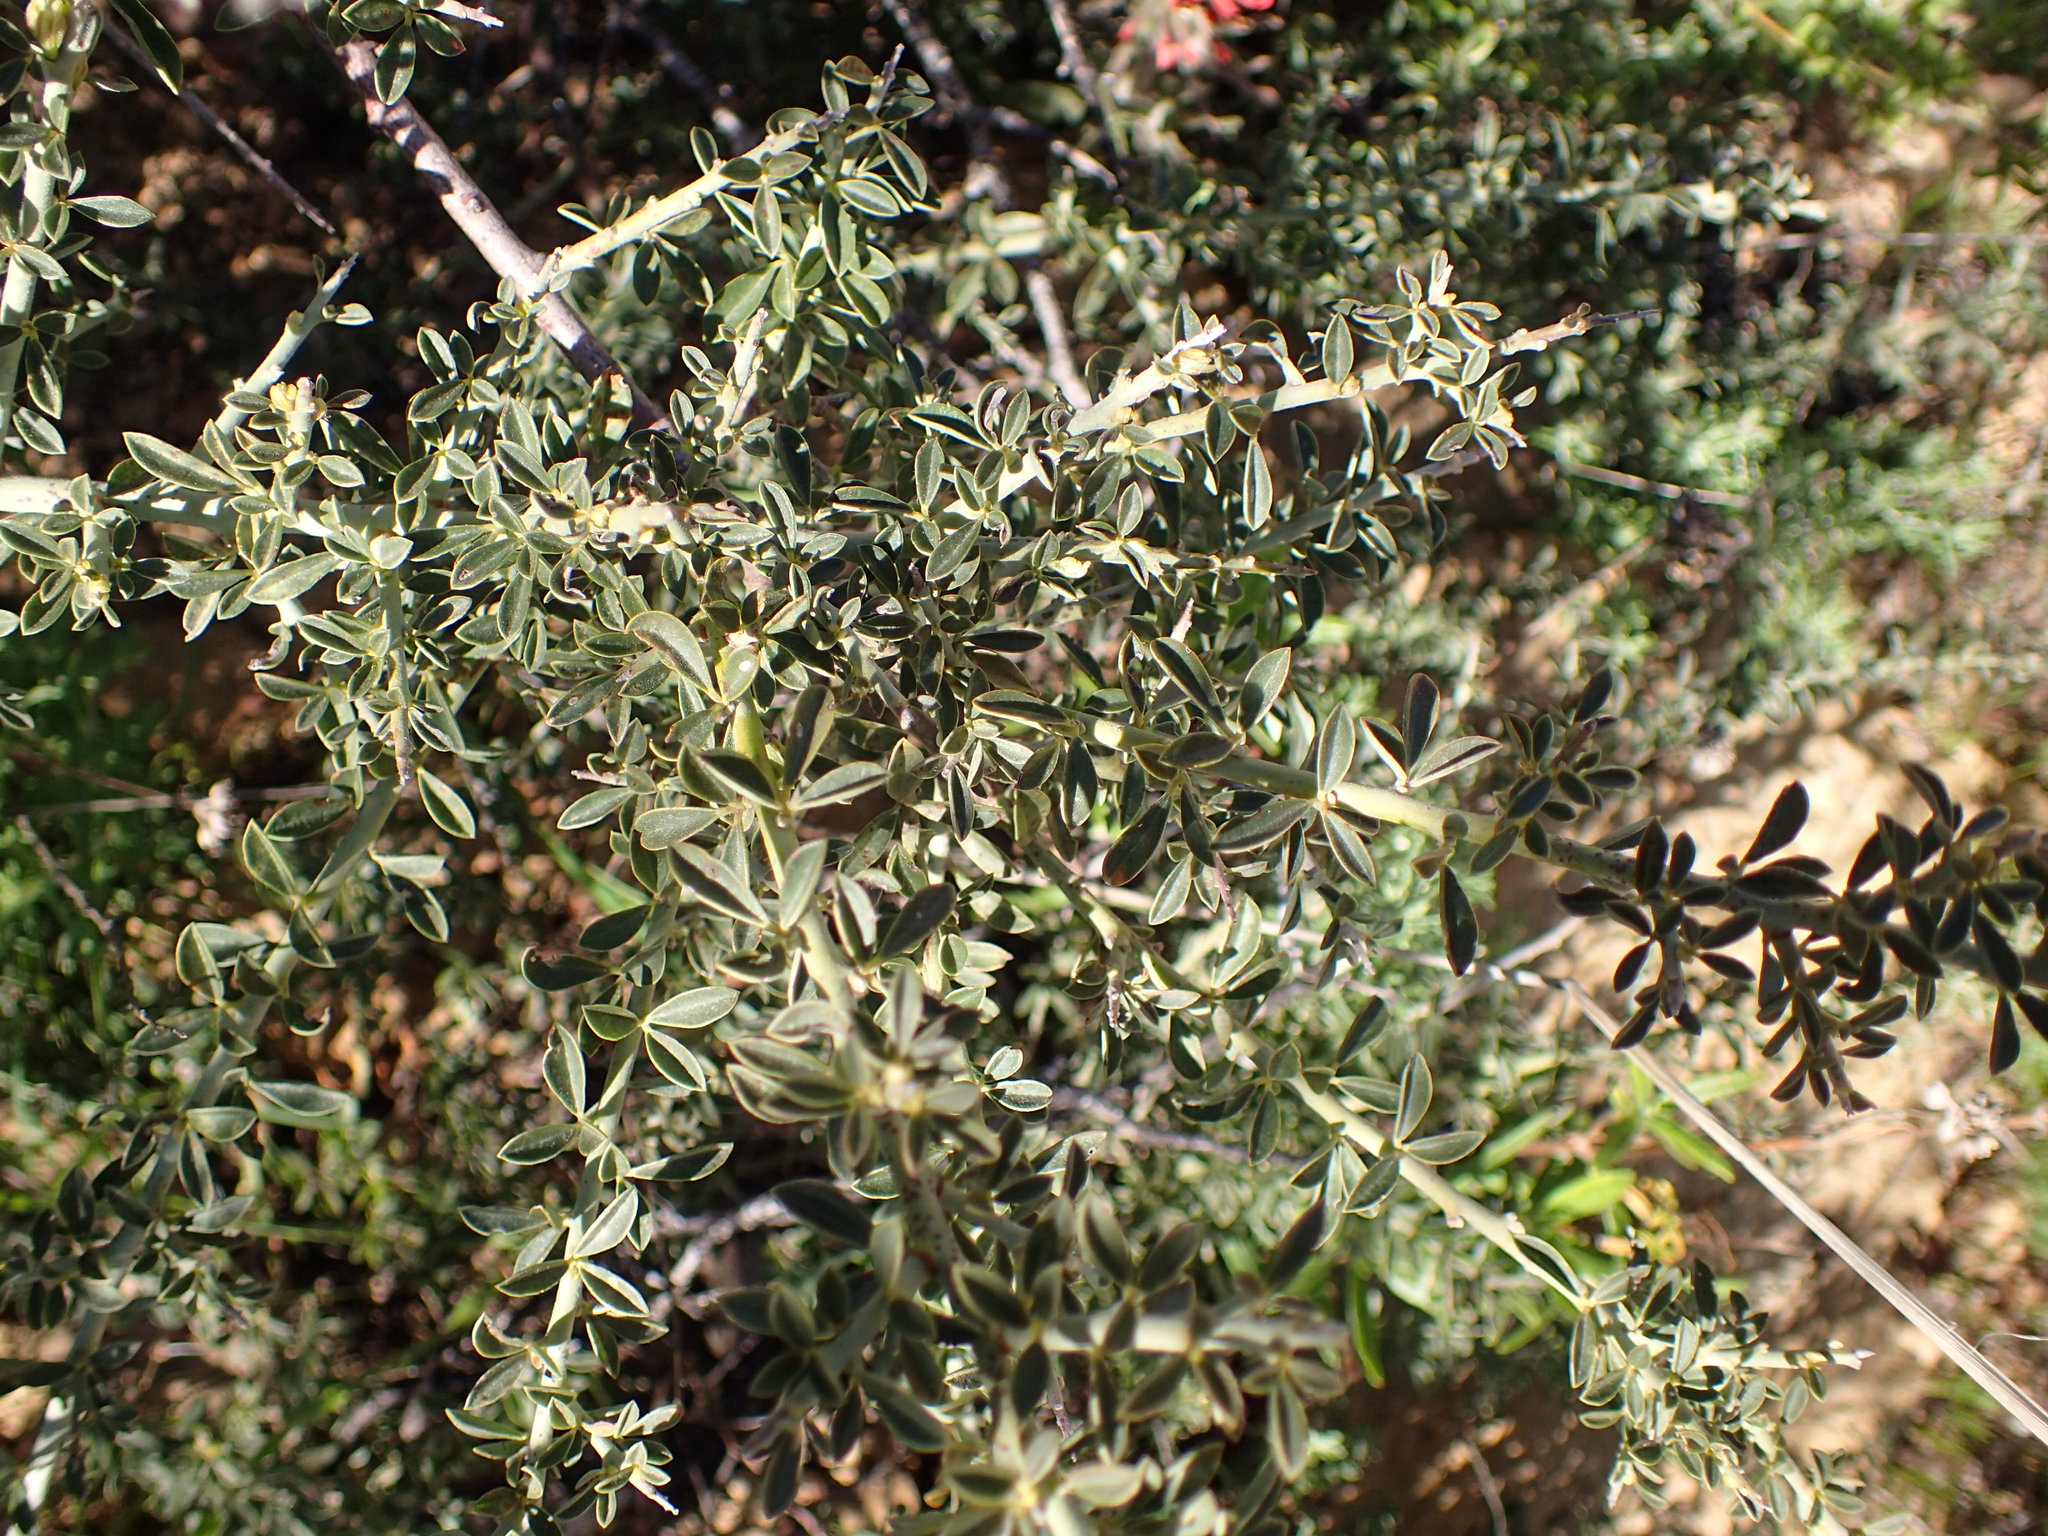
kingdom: Plantae
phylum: Tracheophyta
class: Magnoliopsida
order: Fabales
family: Fabaceae
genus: Pickeringia
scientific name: Pickeringia montana
